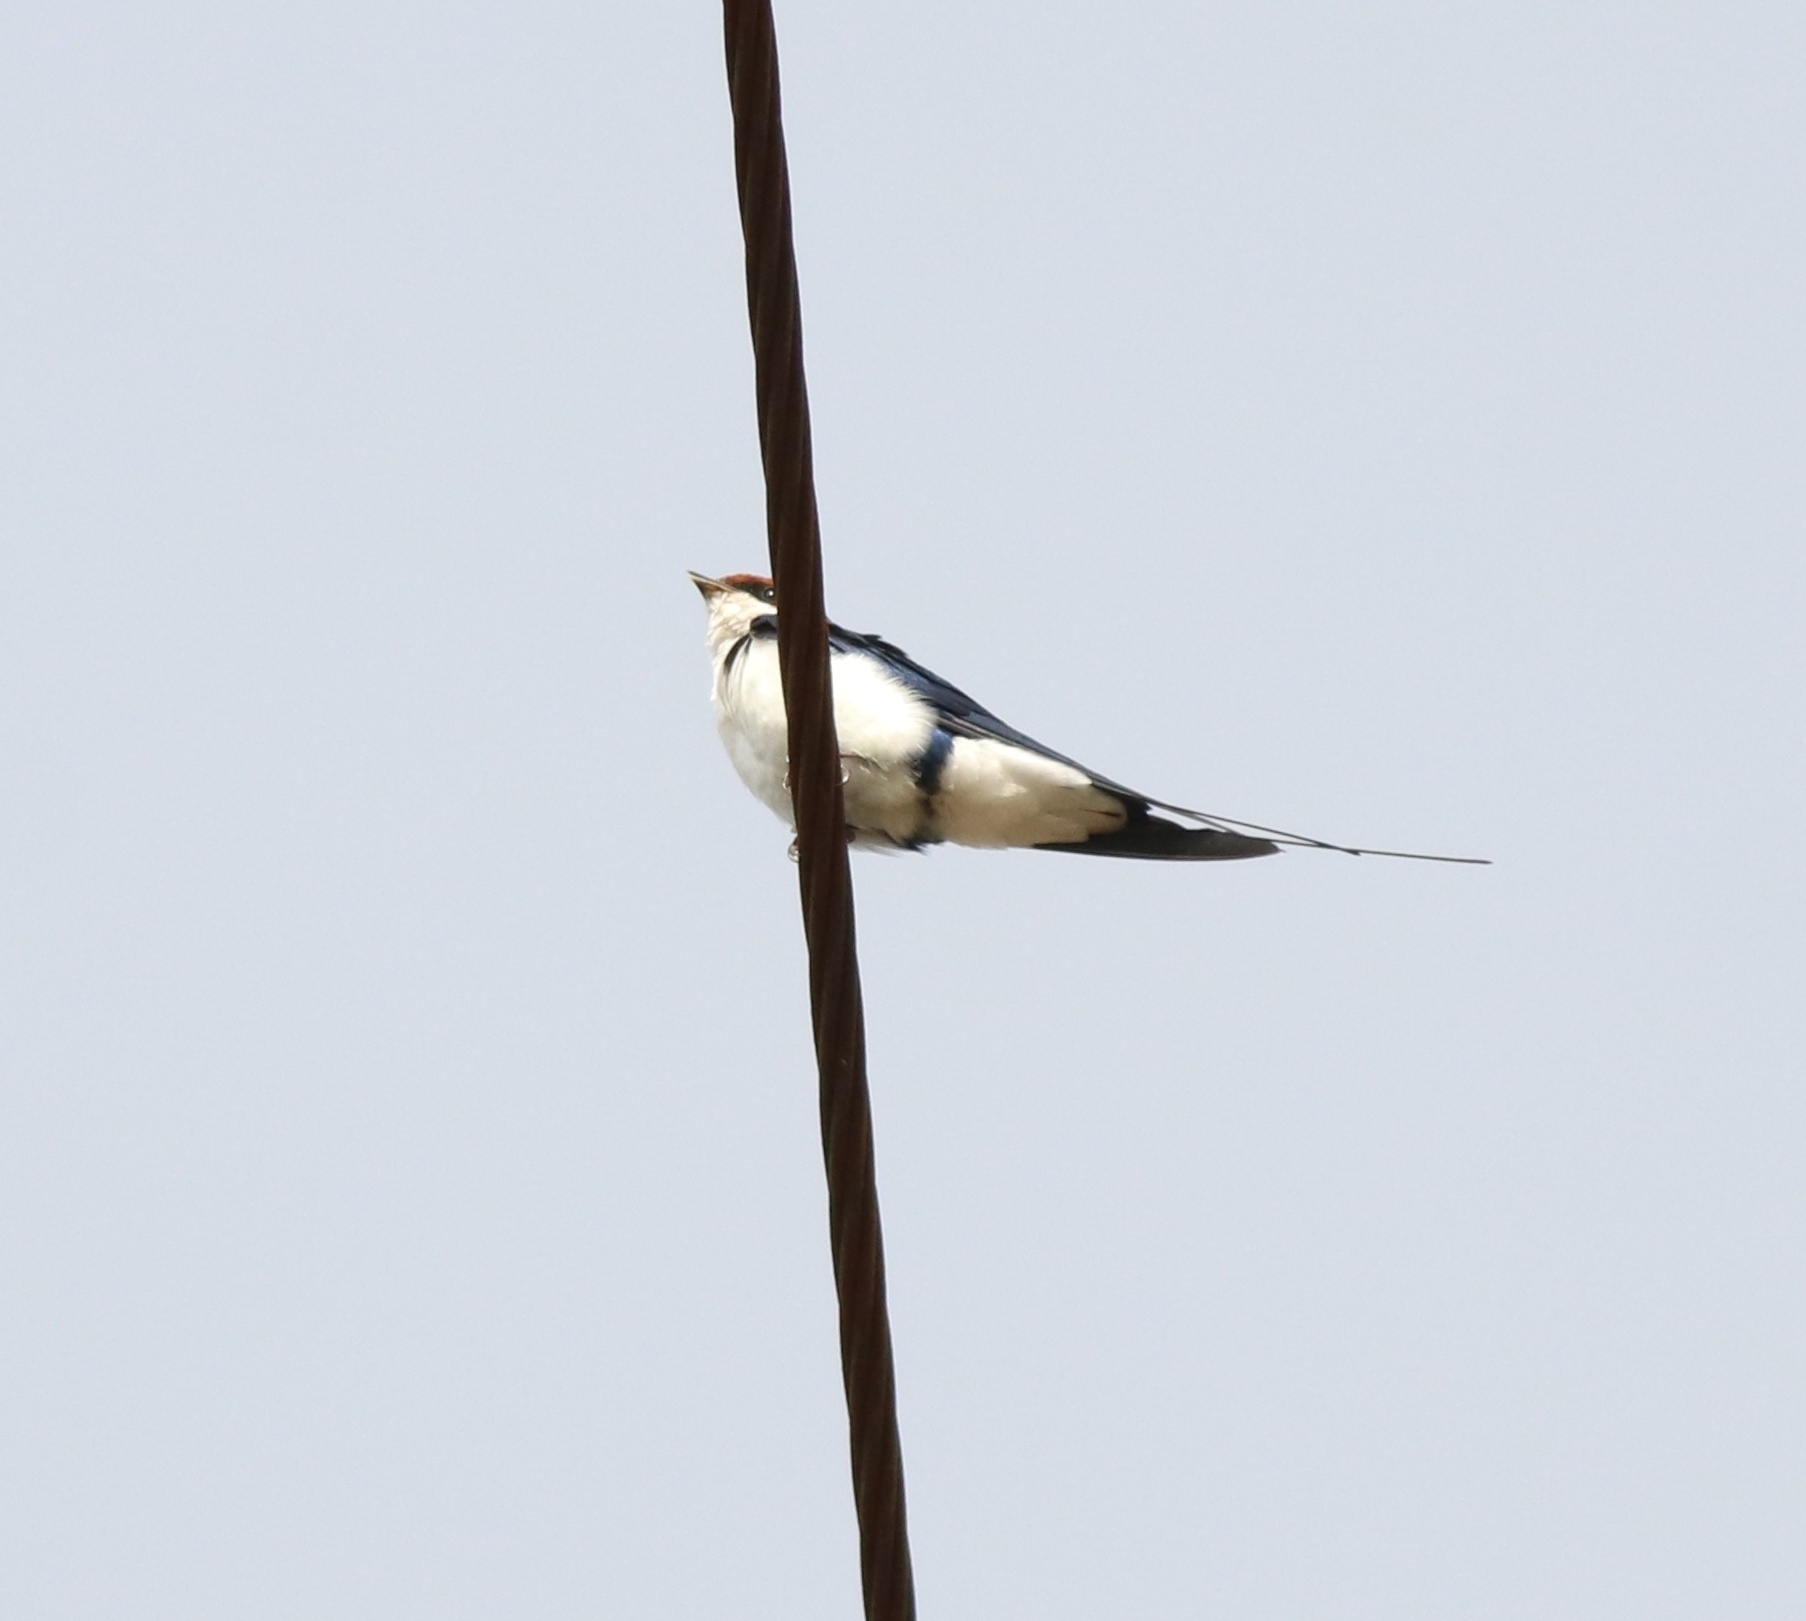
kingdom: Animalia
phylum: Chordata
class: Aves
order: Passeriformes
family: Hirundinidae
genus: Hirundo
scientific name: Hirundo smithii
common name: Wire-tailed swallow
